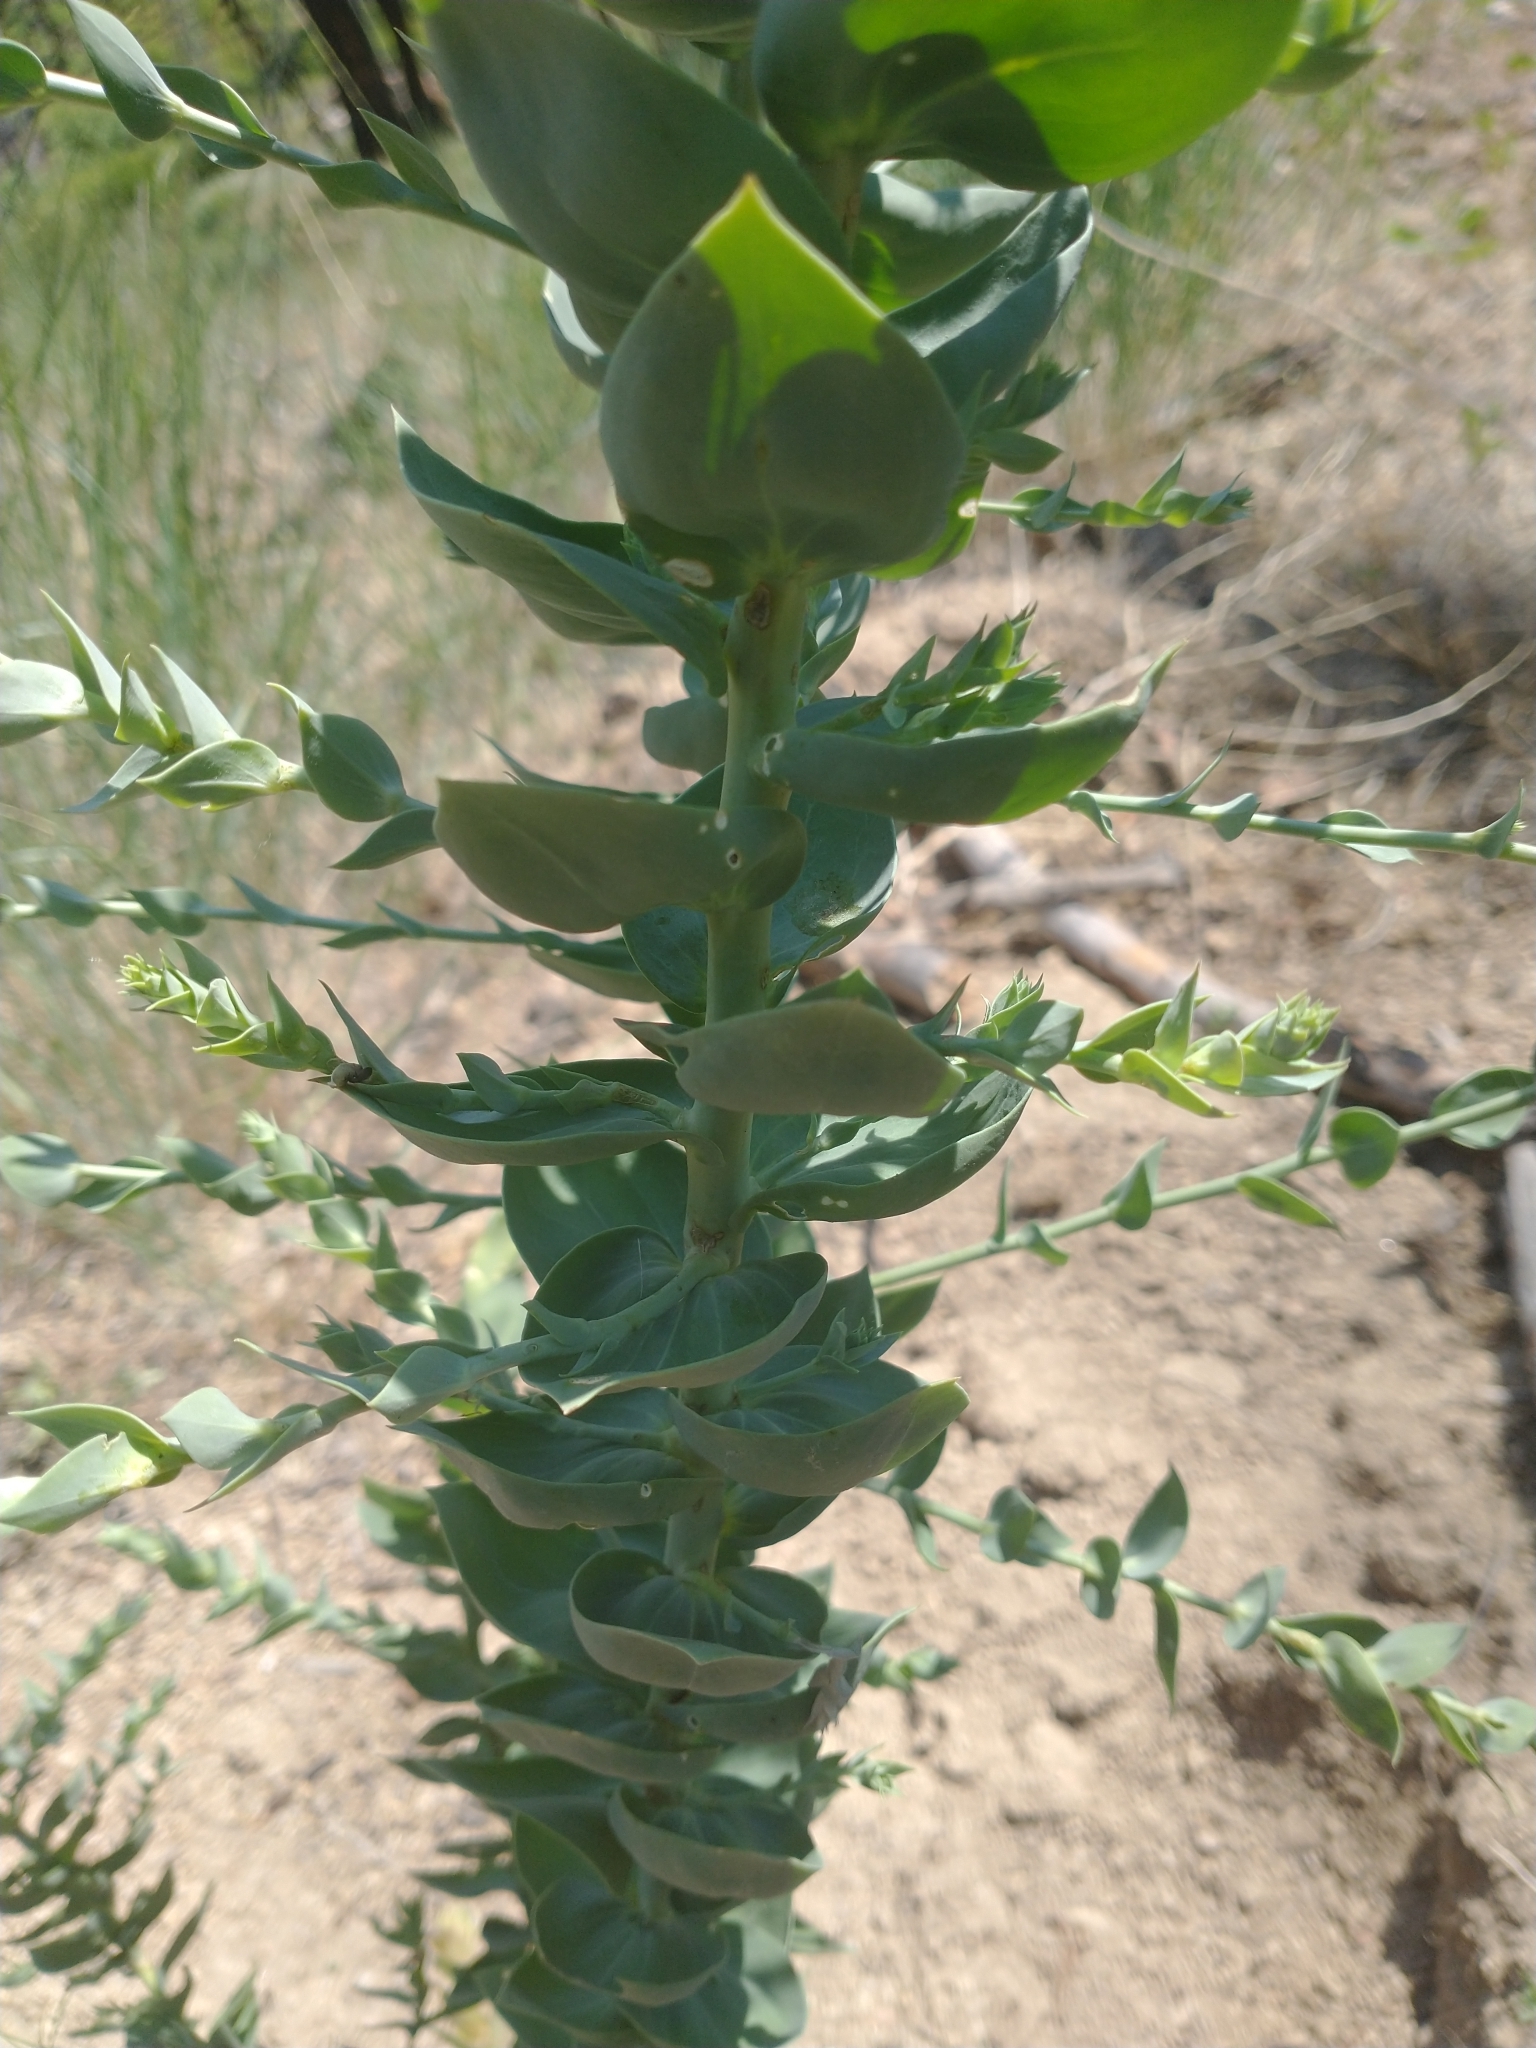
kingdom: Plantae
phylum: Tracheophyta
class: Magnoliopsida
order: Lamiales
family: Plantaginaceae
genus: Linaria
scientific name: Linaria dalmatica
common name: Dalmatian toadflax
